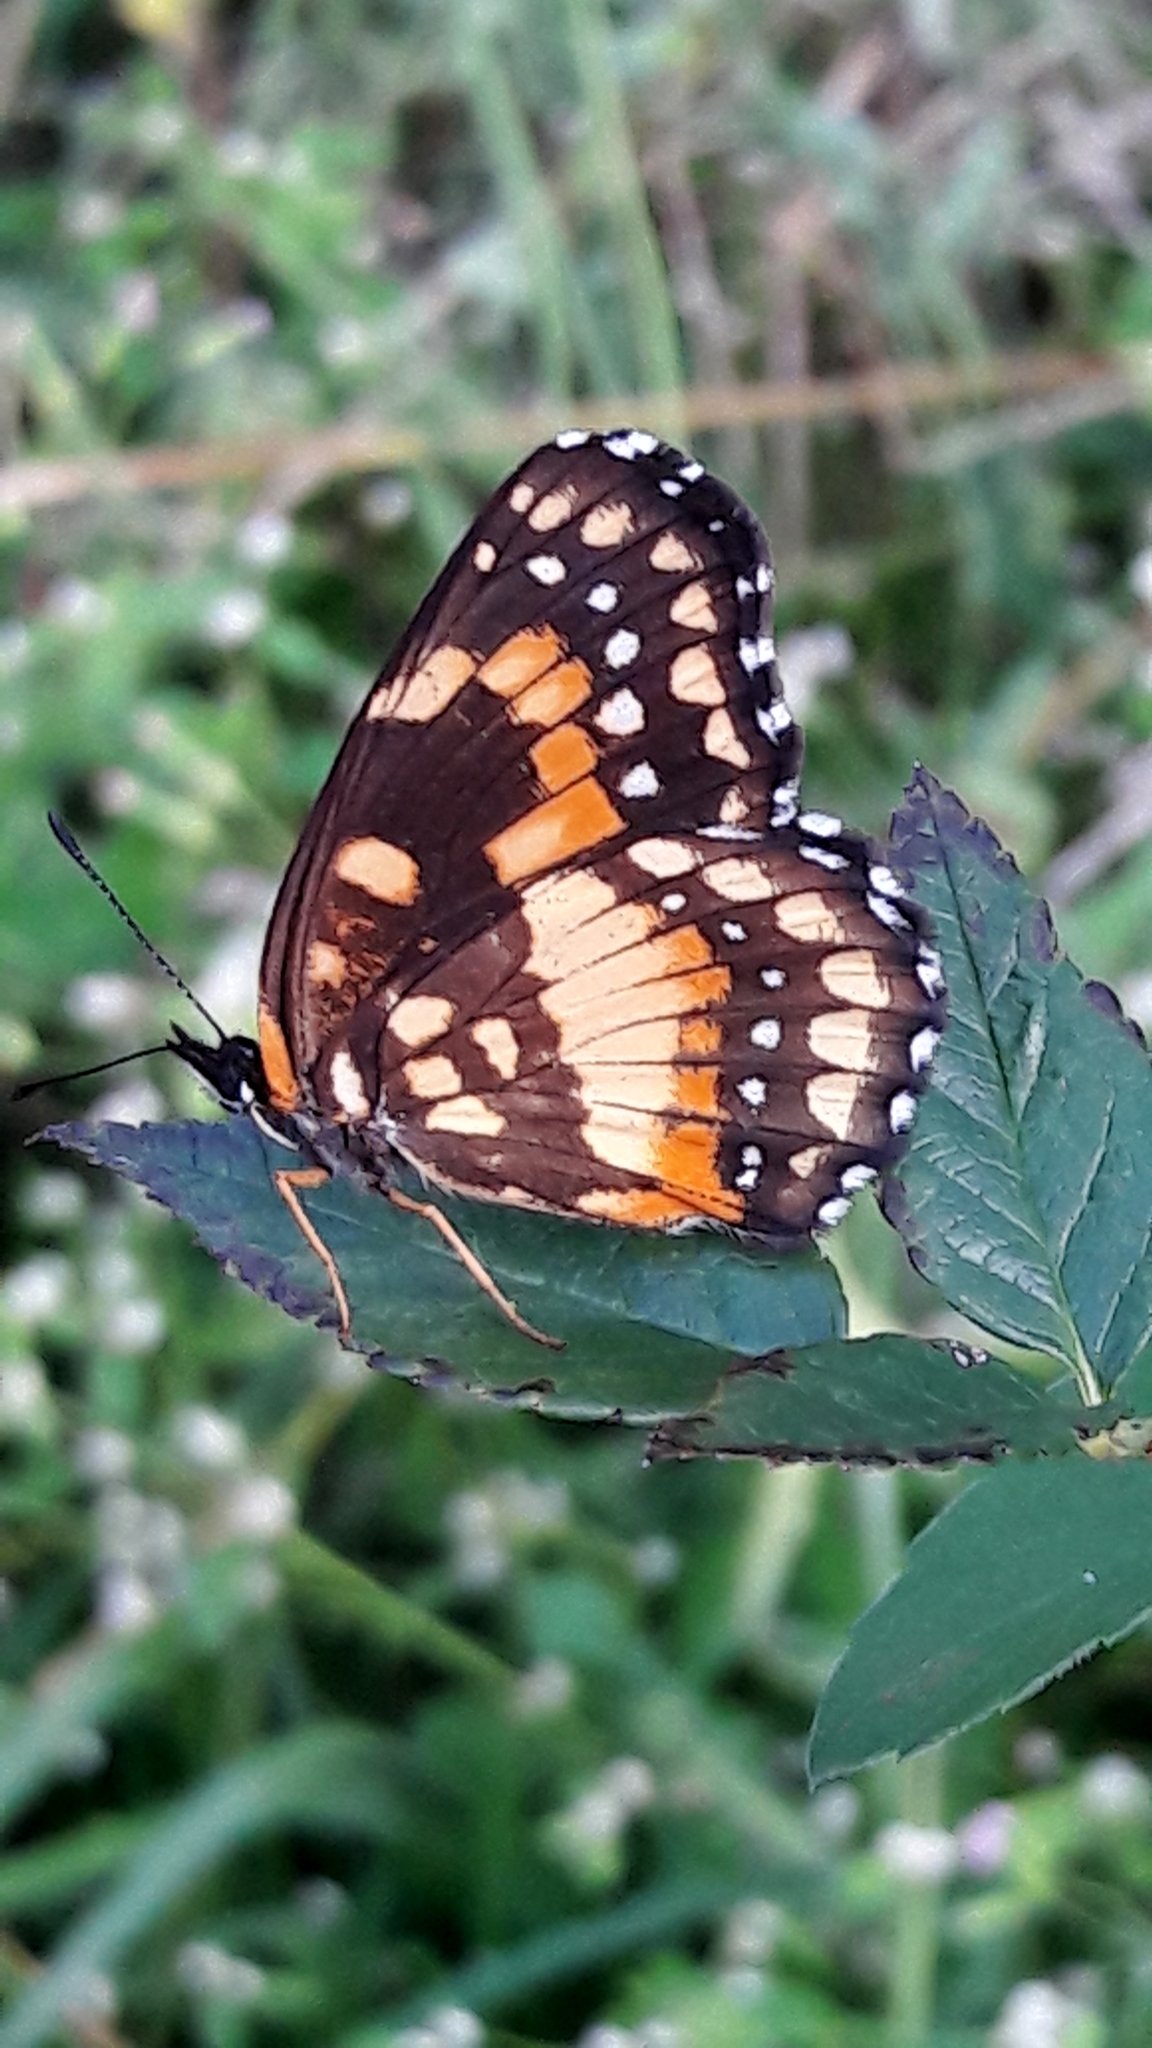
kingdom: Animalia
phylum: Arthropoda
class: Insecta
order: Lepidoptera
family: Nymphalidae
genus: Chlosyne
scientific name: Chlosyne lacinia
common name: Bordered patch
